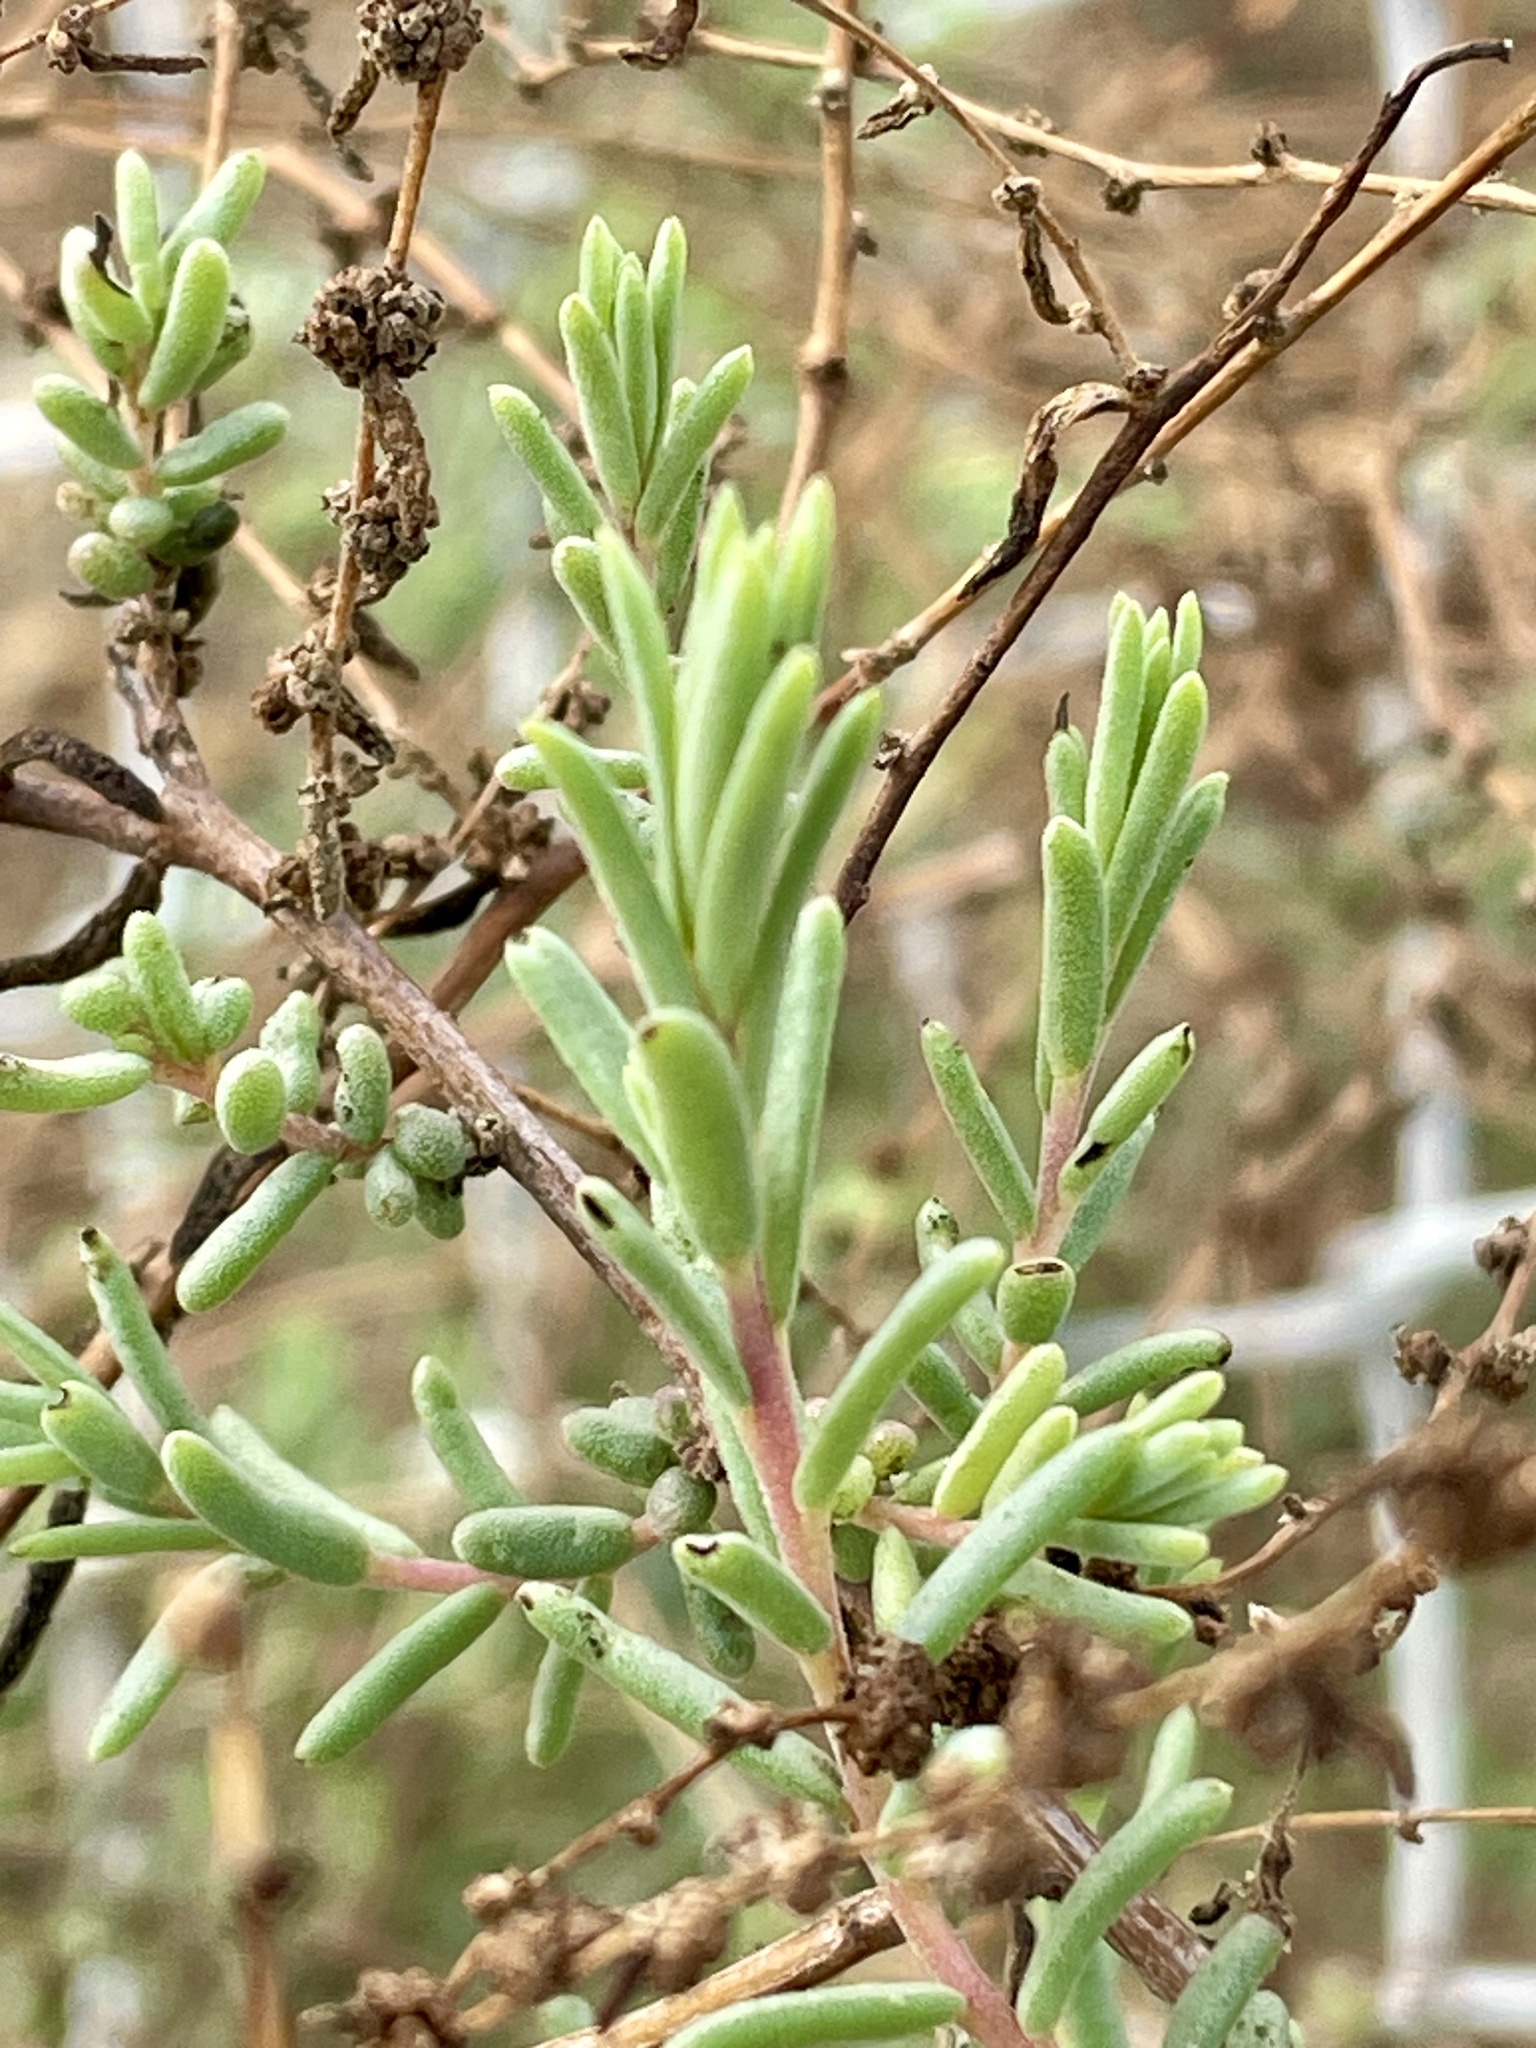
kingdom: Plantae
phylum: Tracheophyta
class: Magnoliopsida
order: Caryophyllales
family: Amaranthaceae
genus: Suaeda
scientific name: Suaeda nigra
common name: Bush seepweed
